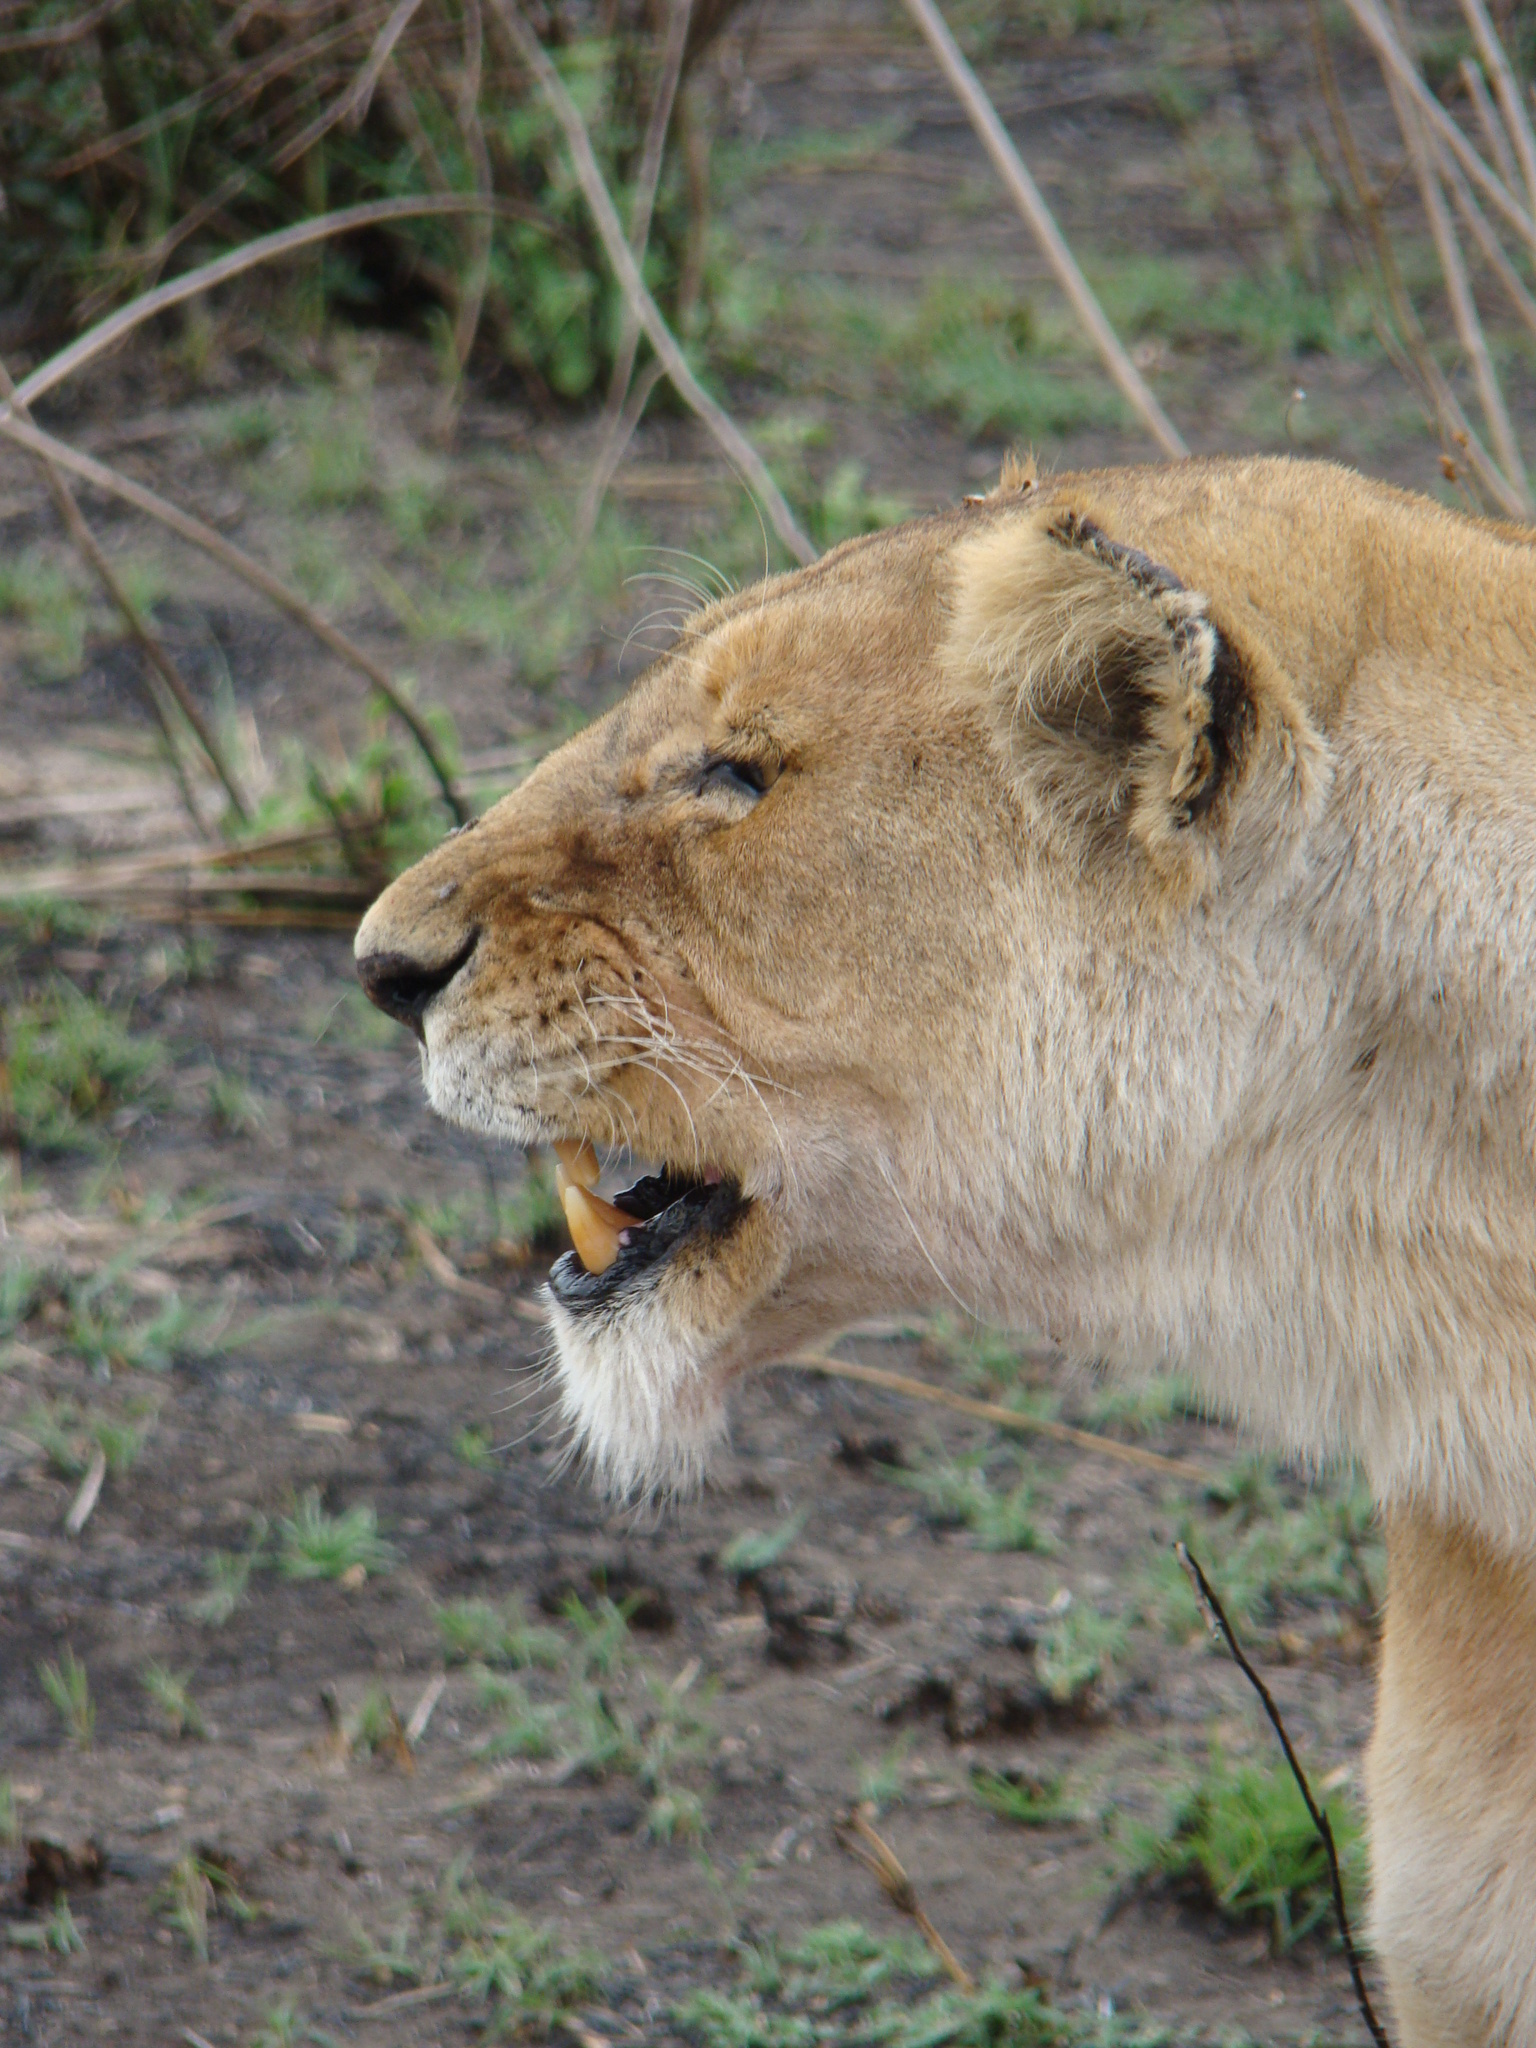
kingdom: Animalia
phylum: Chordata
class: Mammalia
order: Carnivora
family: Felidae
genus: Panthera
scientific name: Panthera leo
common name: Lion
